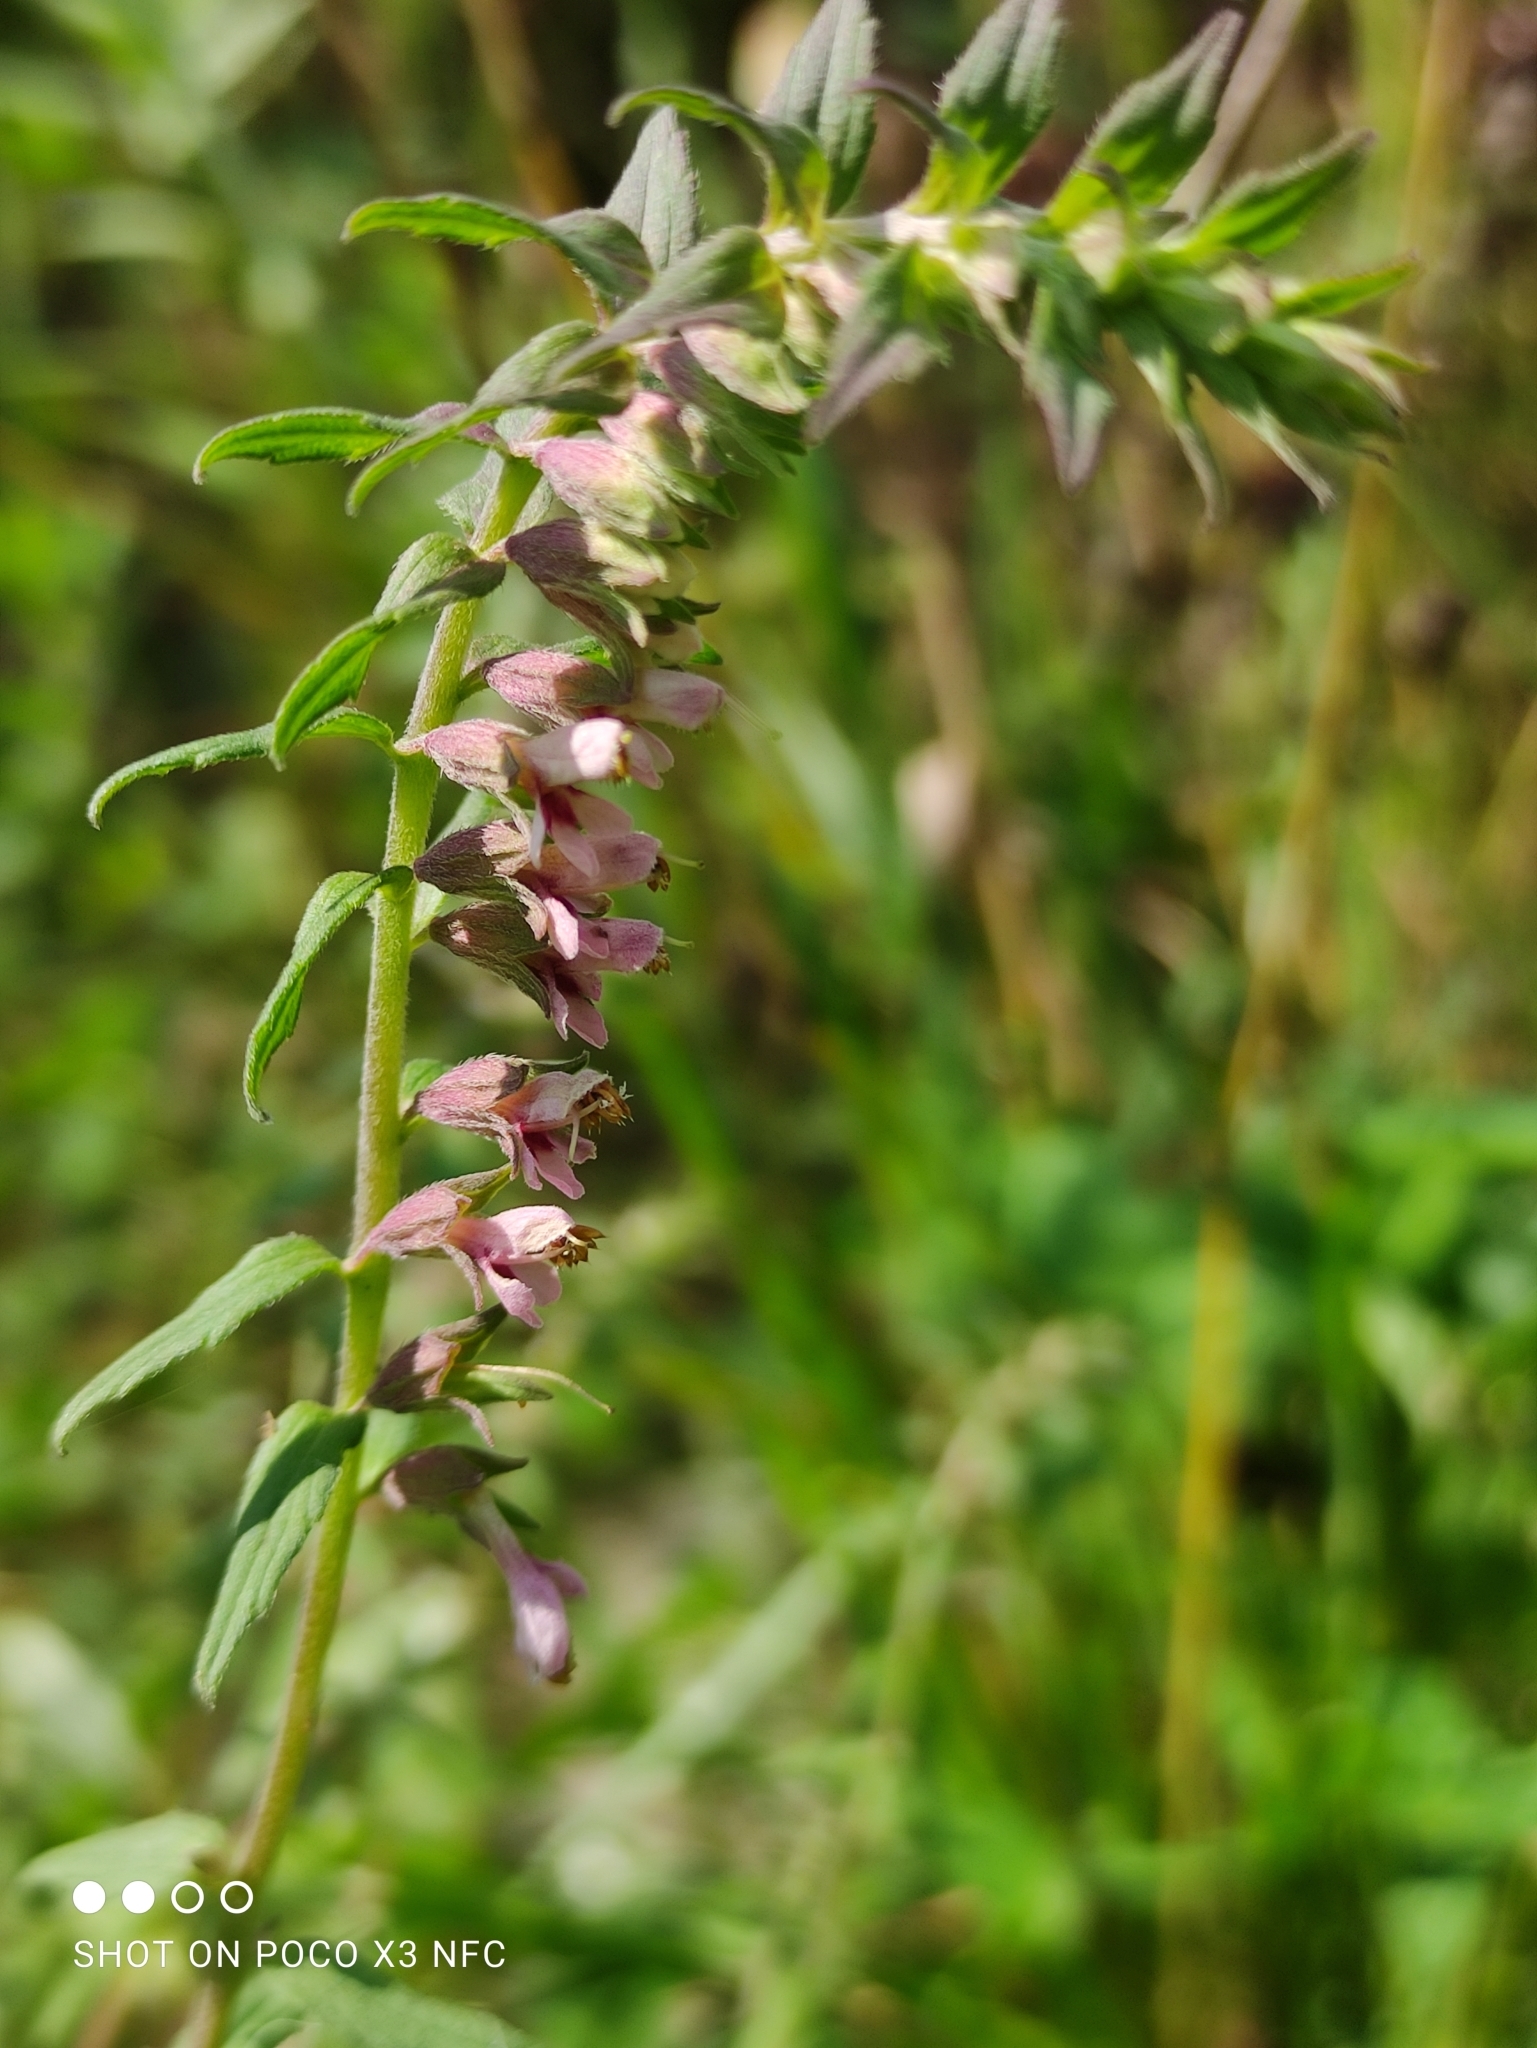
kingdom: Plantae
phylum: Tracheophyta
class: Magnoliopsida
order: Lamiales
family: Orobanchaceae
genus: Odontites
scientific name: Odontites vulgaris
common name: Broomrape
